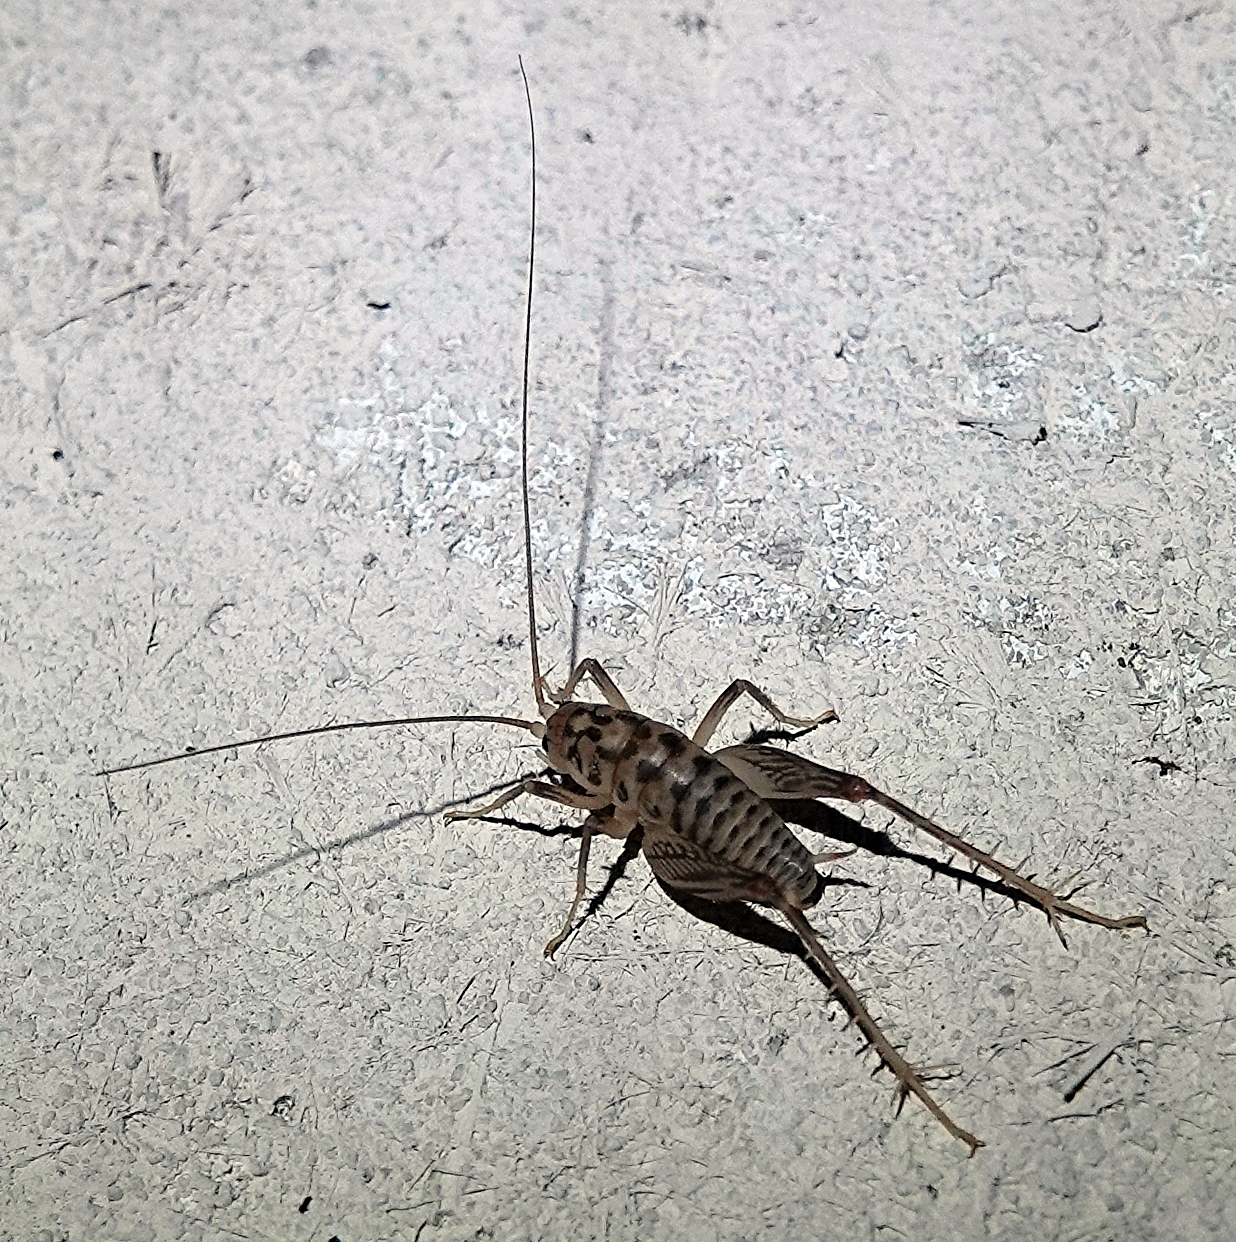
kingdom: Animalia
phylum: Arthropoda
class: Insecta
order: Orthoptera
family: Rhaphidophoridae
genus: Ceuthophilus
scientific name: Ceuthophilus pallidus
